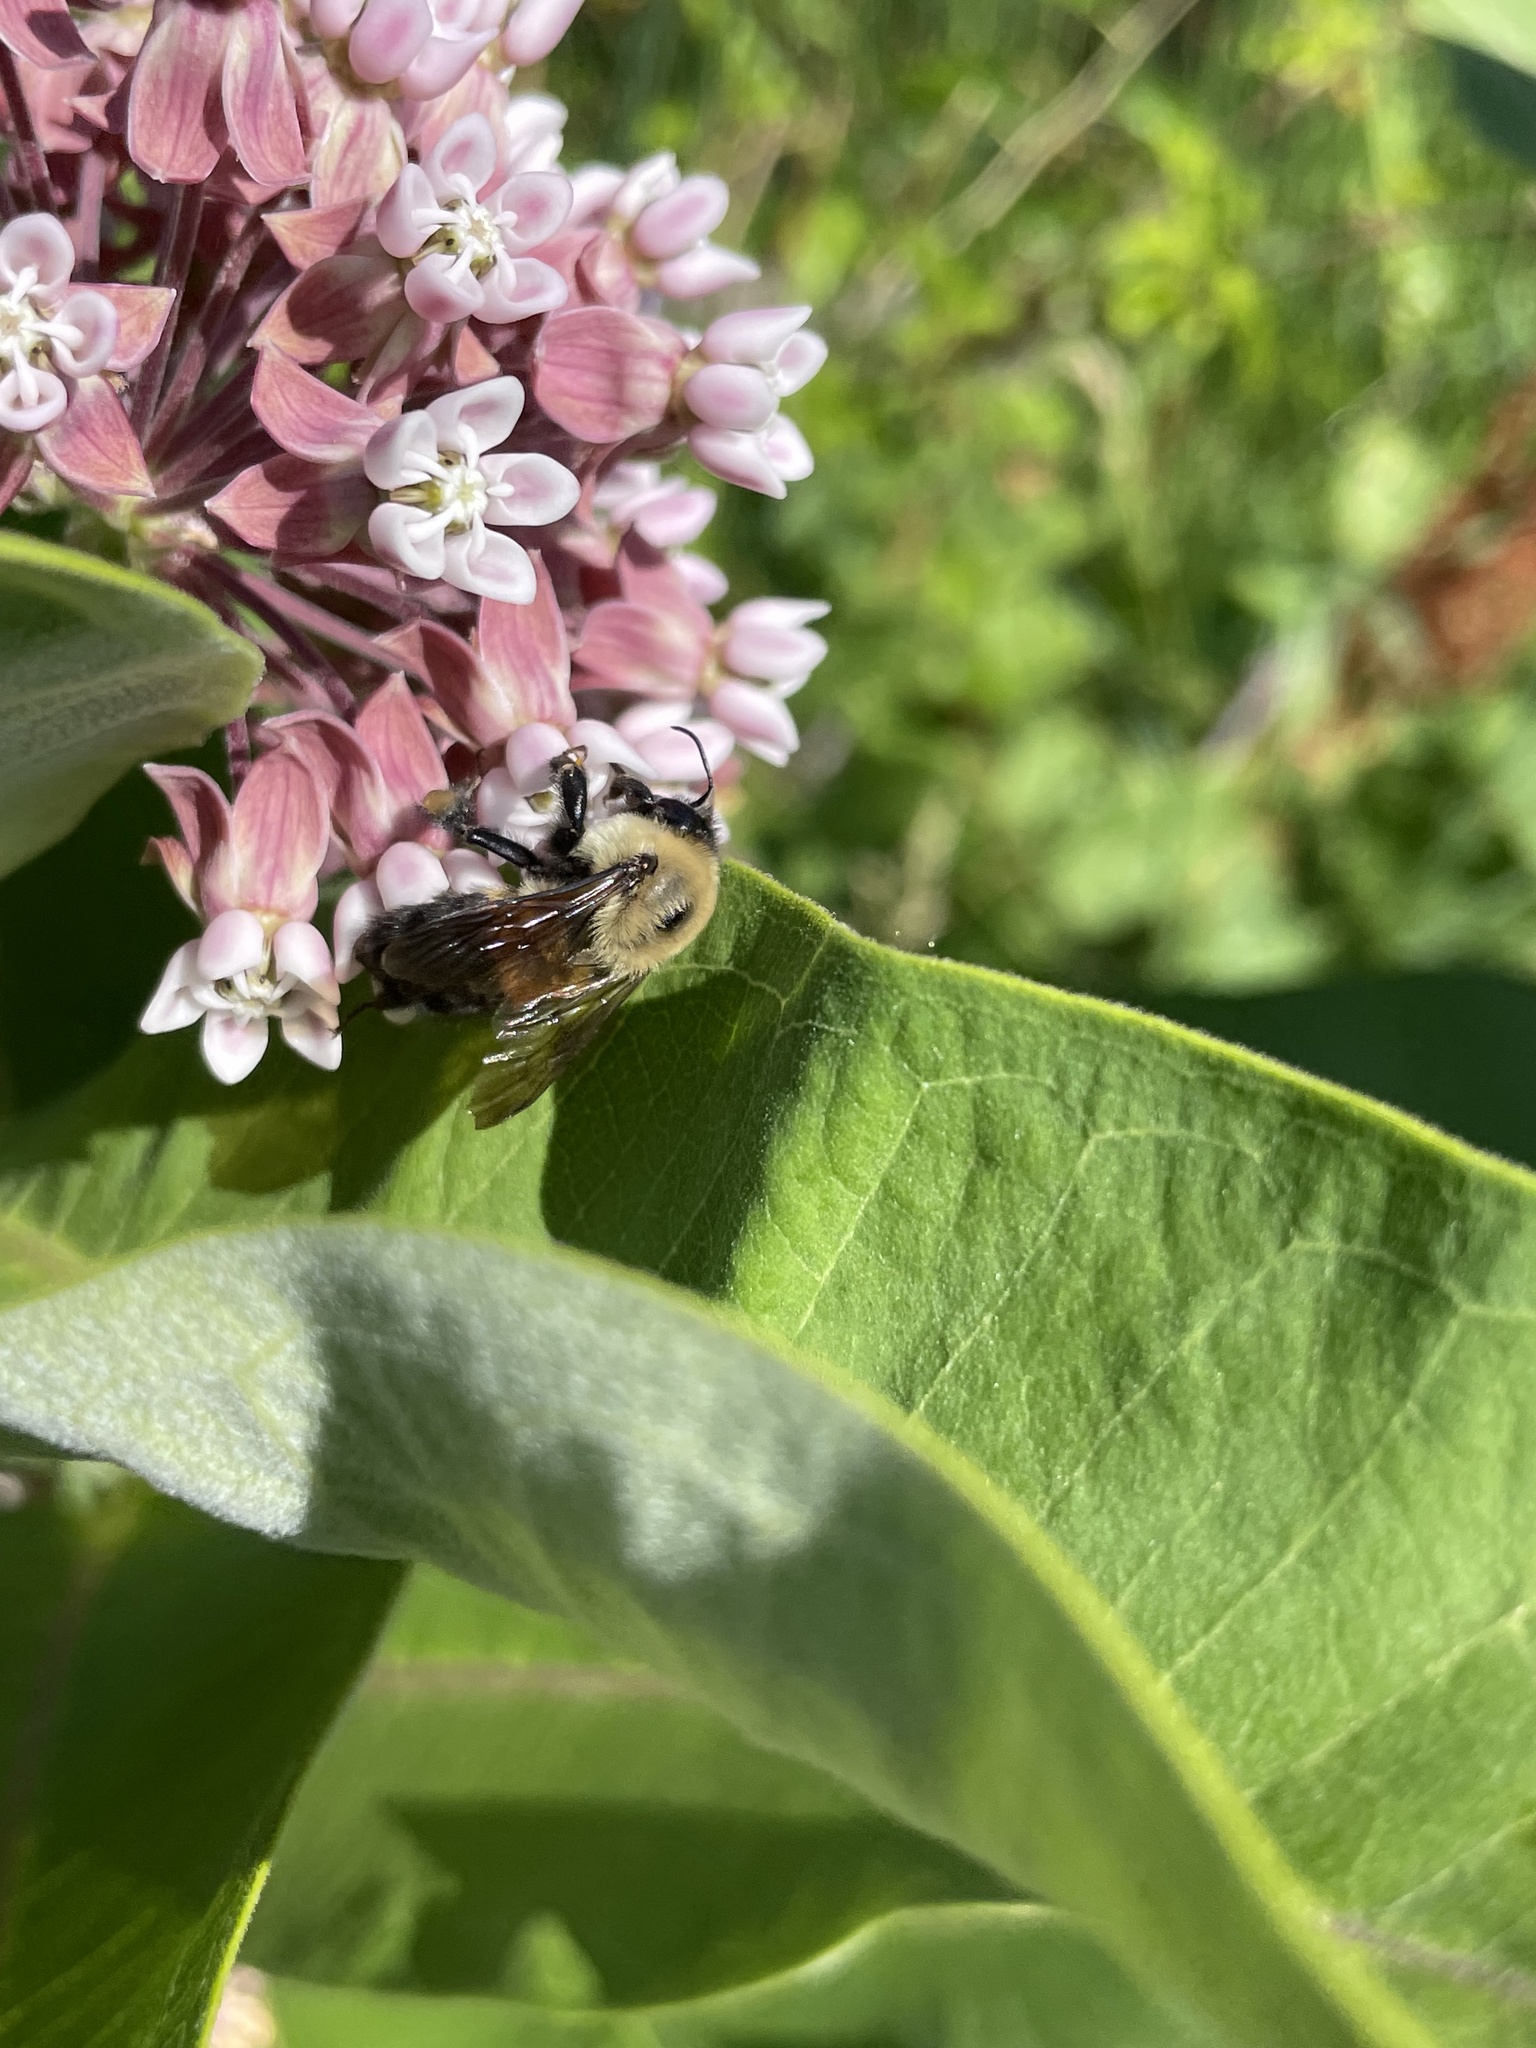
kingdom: Animalia
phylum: Arthropoda
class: Insecta
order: Hymenoptera
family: Apidae
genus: Bombus
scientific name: Bombus griseocollis
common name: Brown-belted bumble bee
